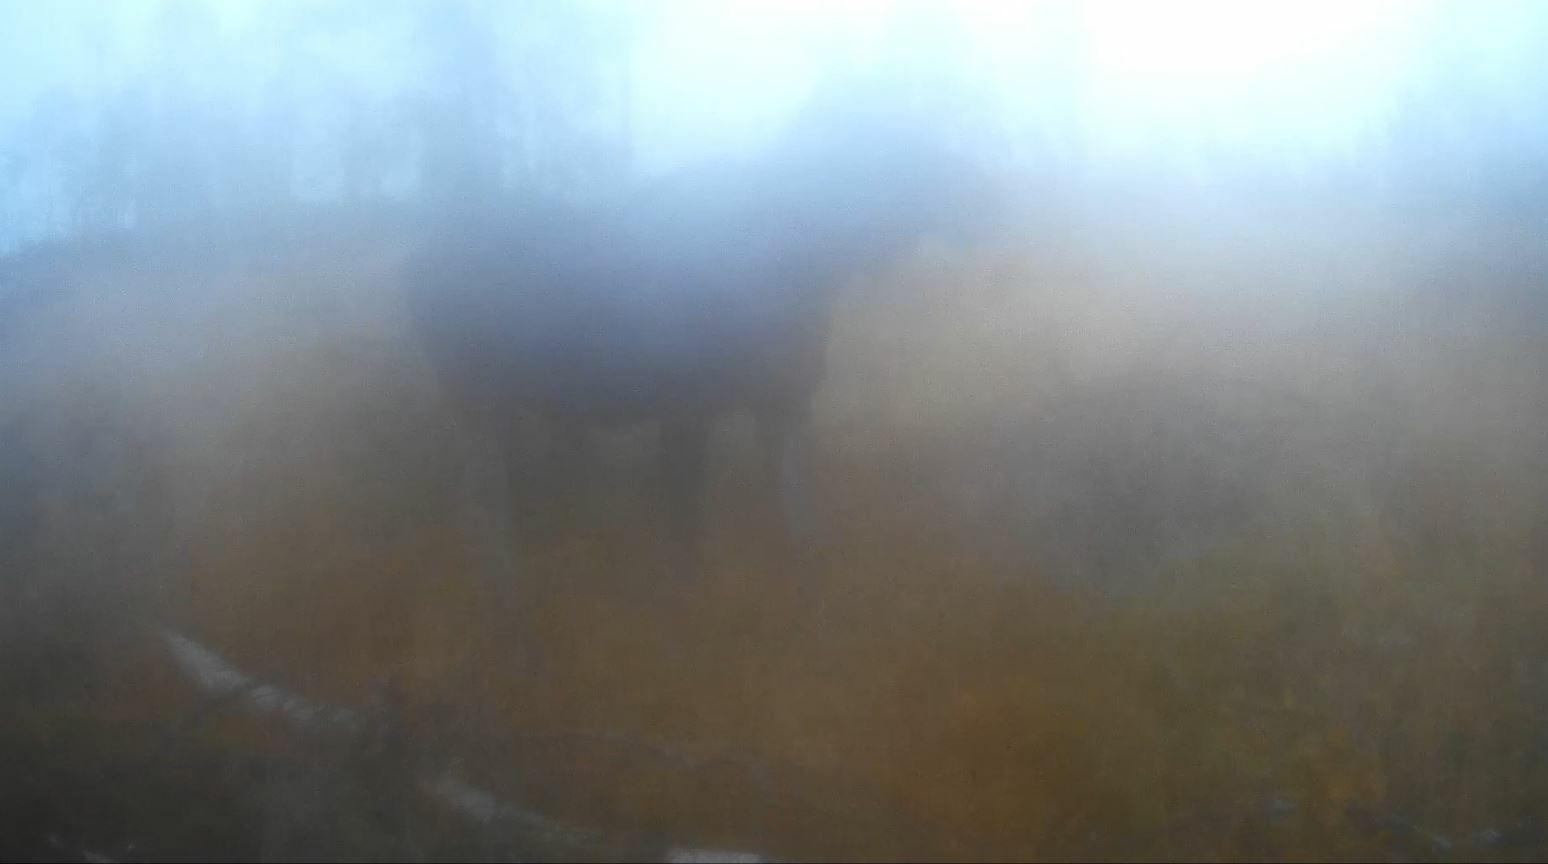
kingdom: Animalia
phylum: Chordata
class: Mammalia
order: Artiodactyla
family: Cervidae
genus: Alces
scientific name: Alces alces
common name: Moose
